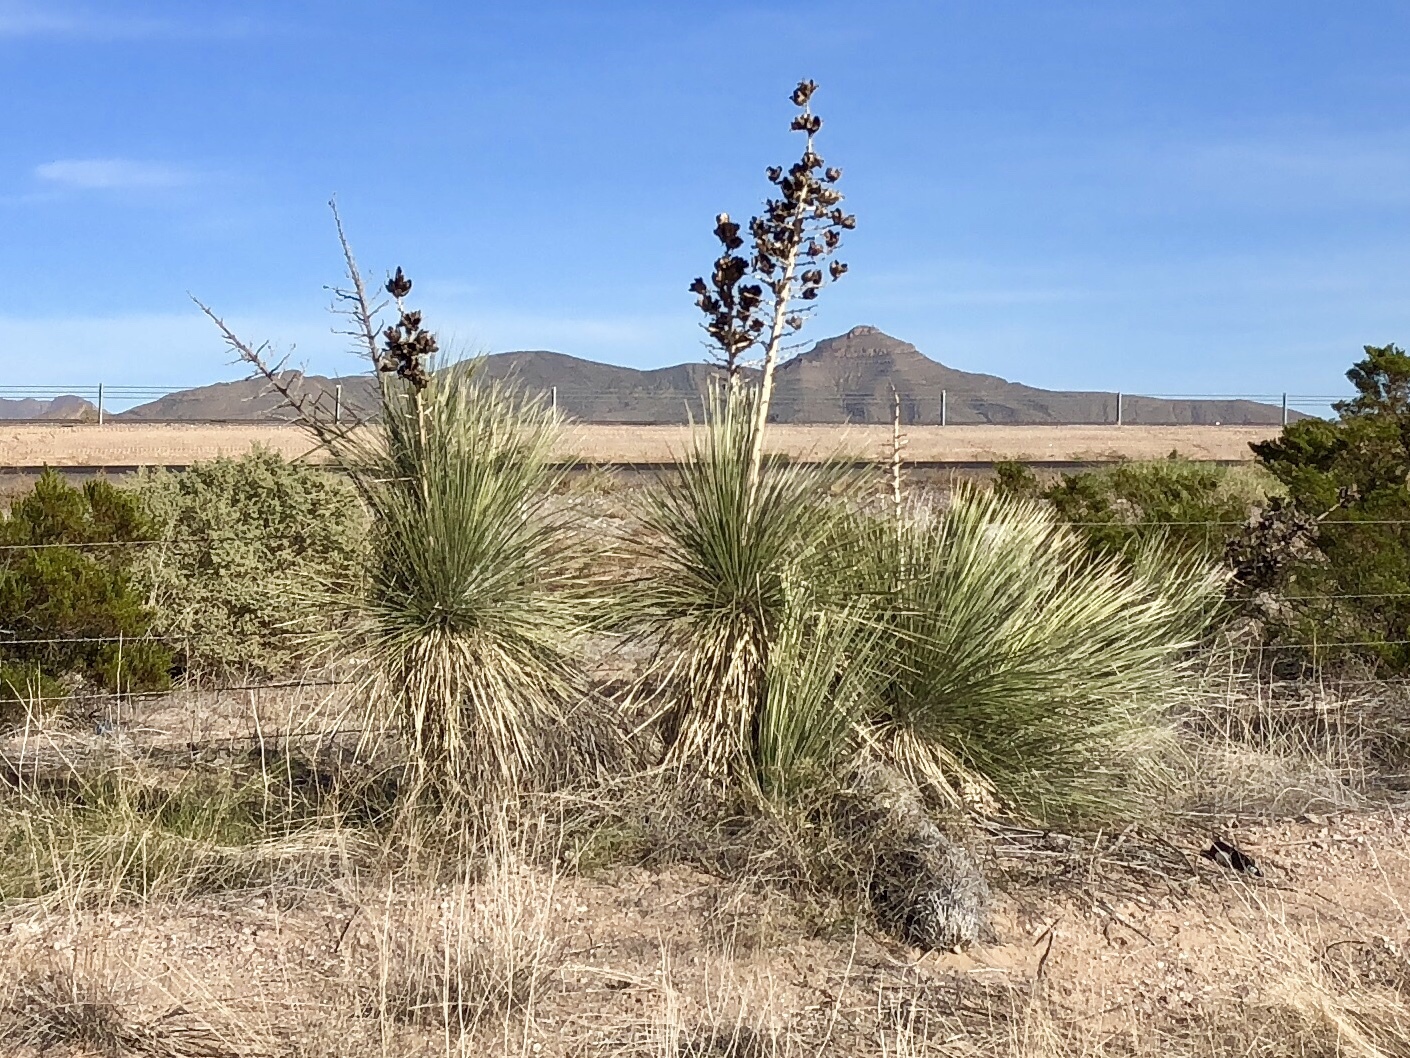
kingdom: Plantae
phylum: Tracheophyta
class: Liliopsida
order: Asparagales
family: Asparagaceae
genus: Yucca
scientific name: Yucca elata
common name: Palmella
